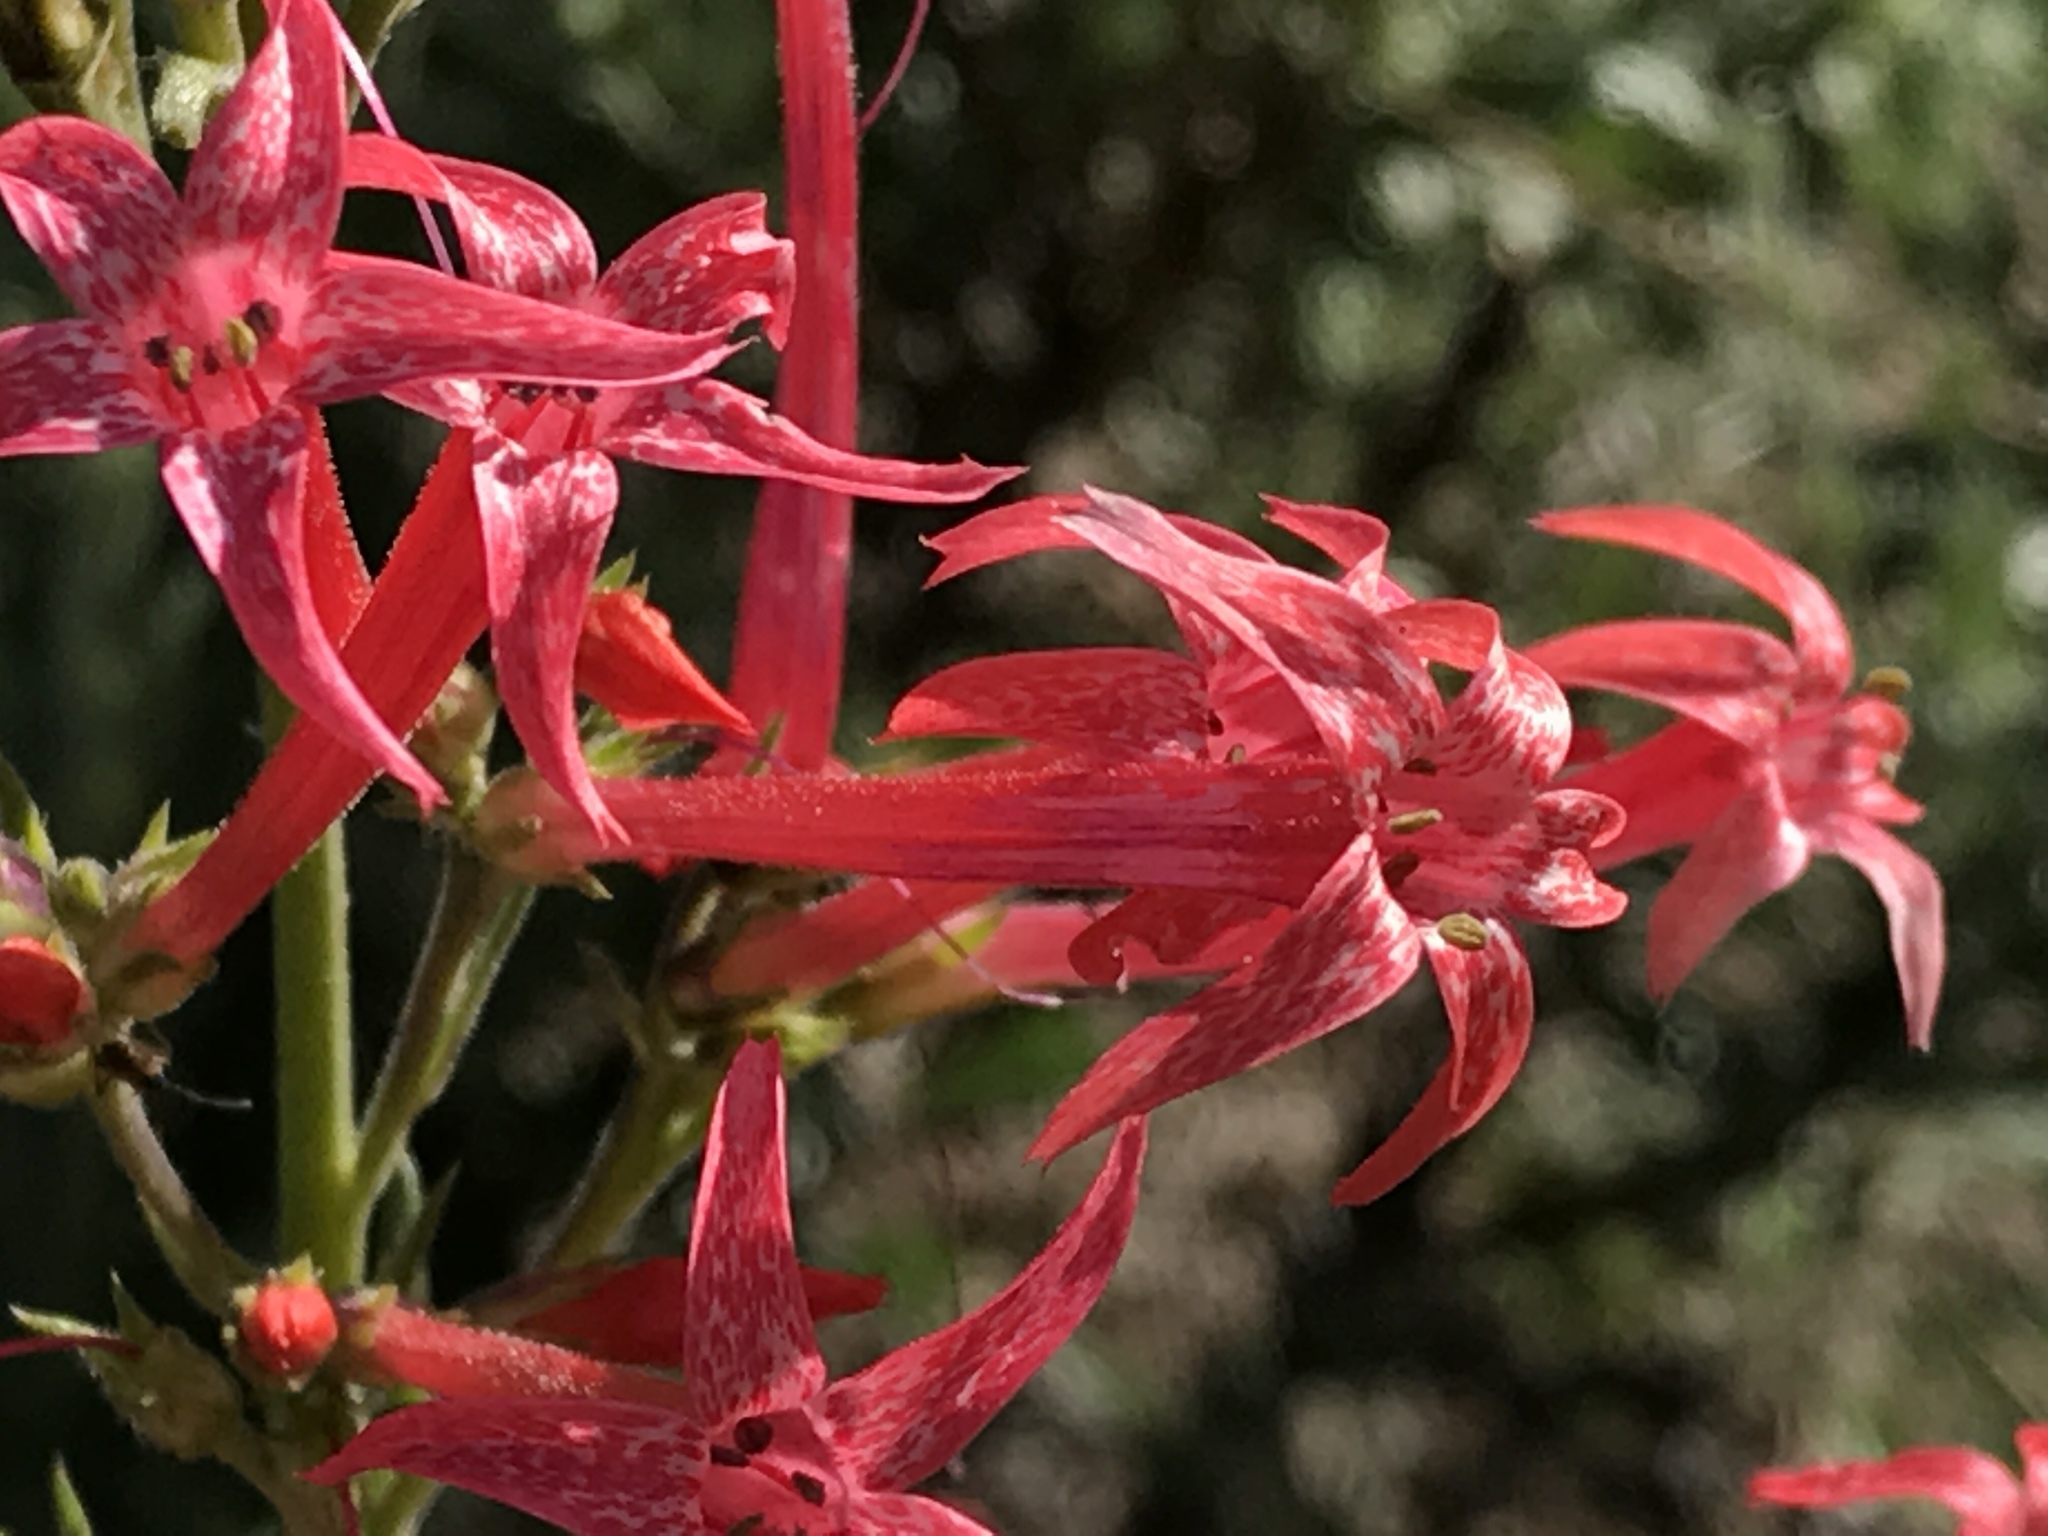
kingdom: Plantae
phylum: Tracheophyta
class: Magnoliopsida
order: Ericales
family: Polemoniaceae
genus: Ipomopsis
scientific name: Ipomopsis aggregata
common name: Scarlet gilia
